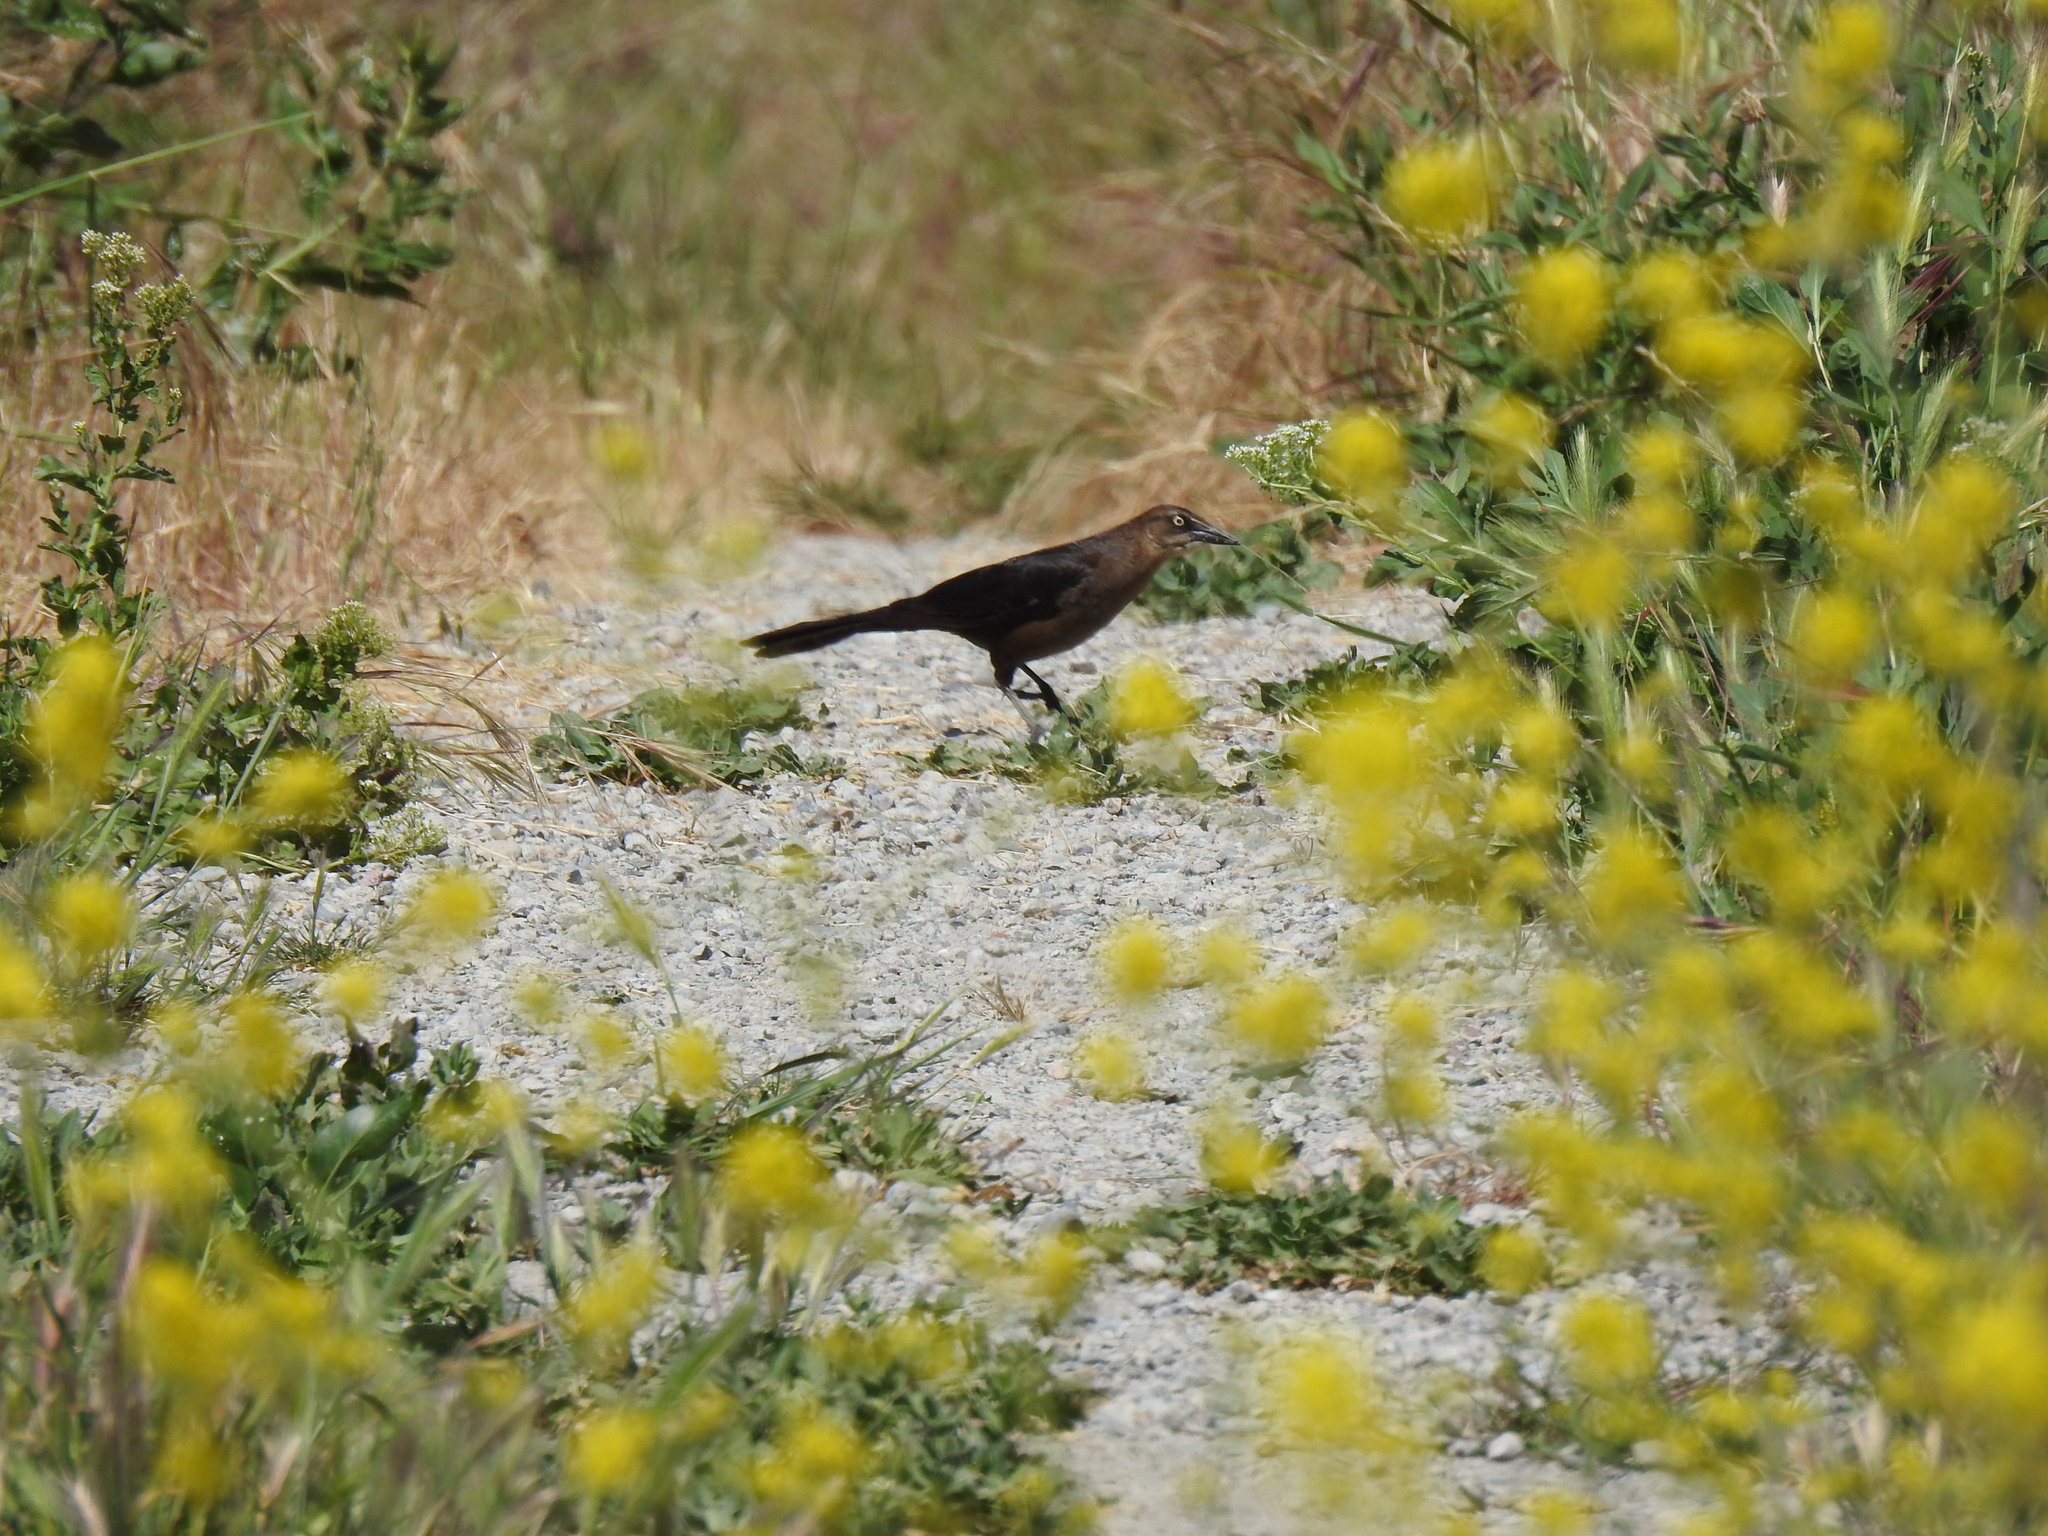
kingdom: Animalia
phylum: Chordata
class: Aves
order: Passeriformes
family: Icteridae
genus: Quiscalus
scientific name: Quiscalus mexicanus
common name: Great-tailed grackle
